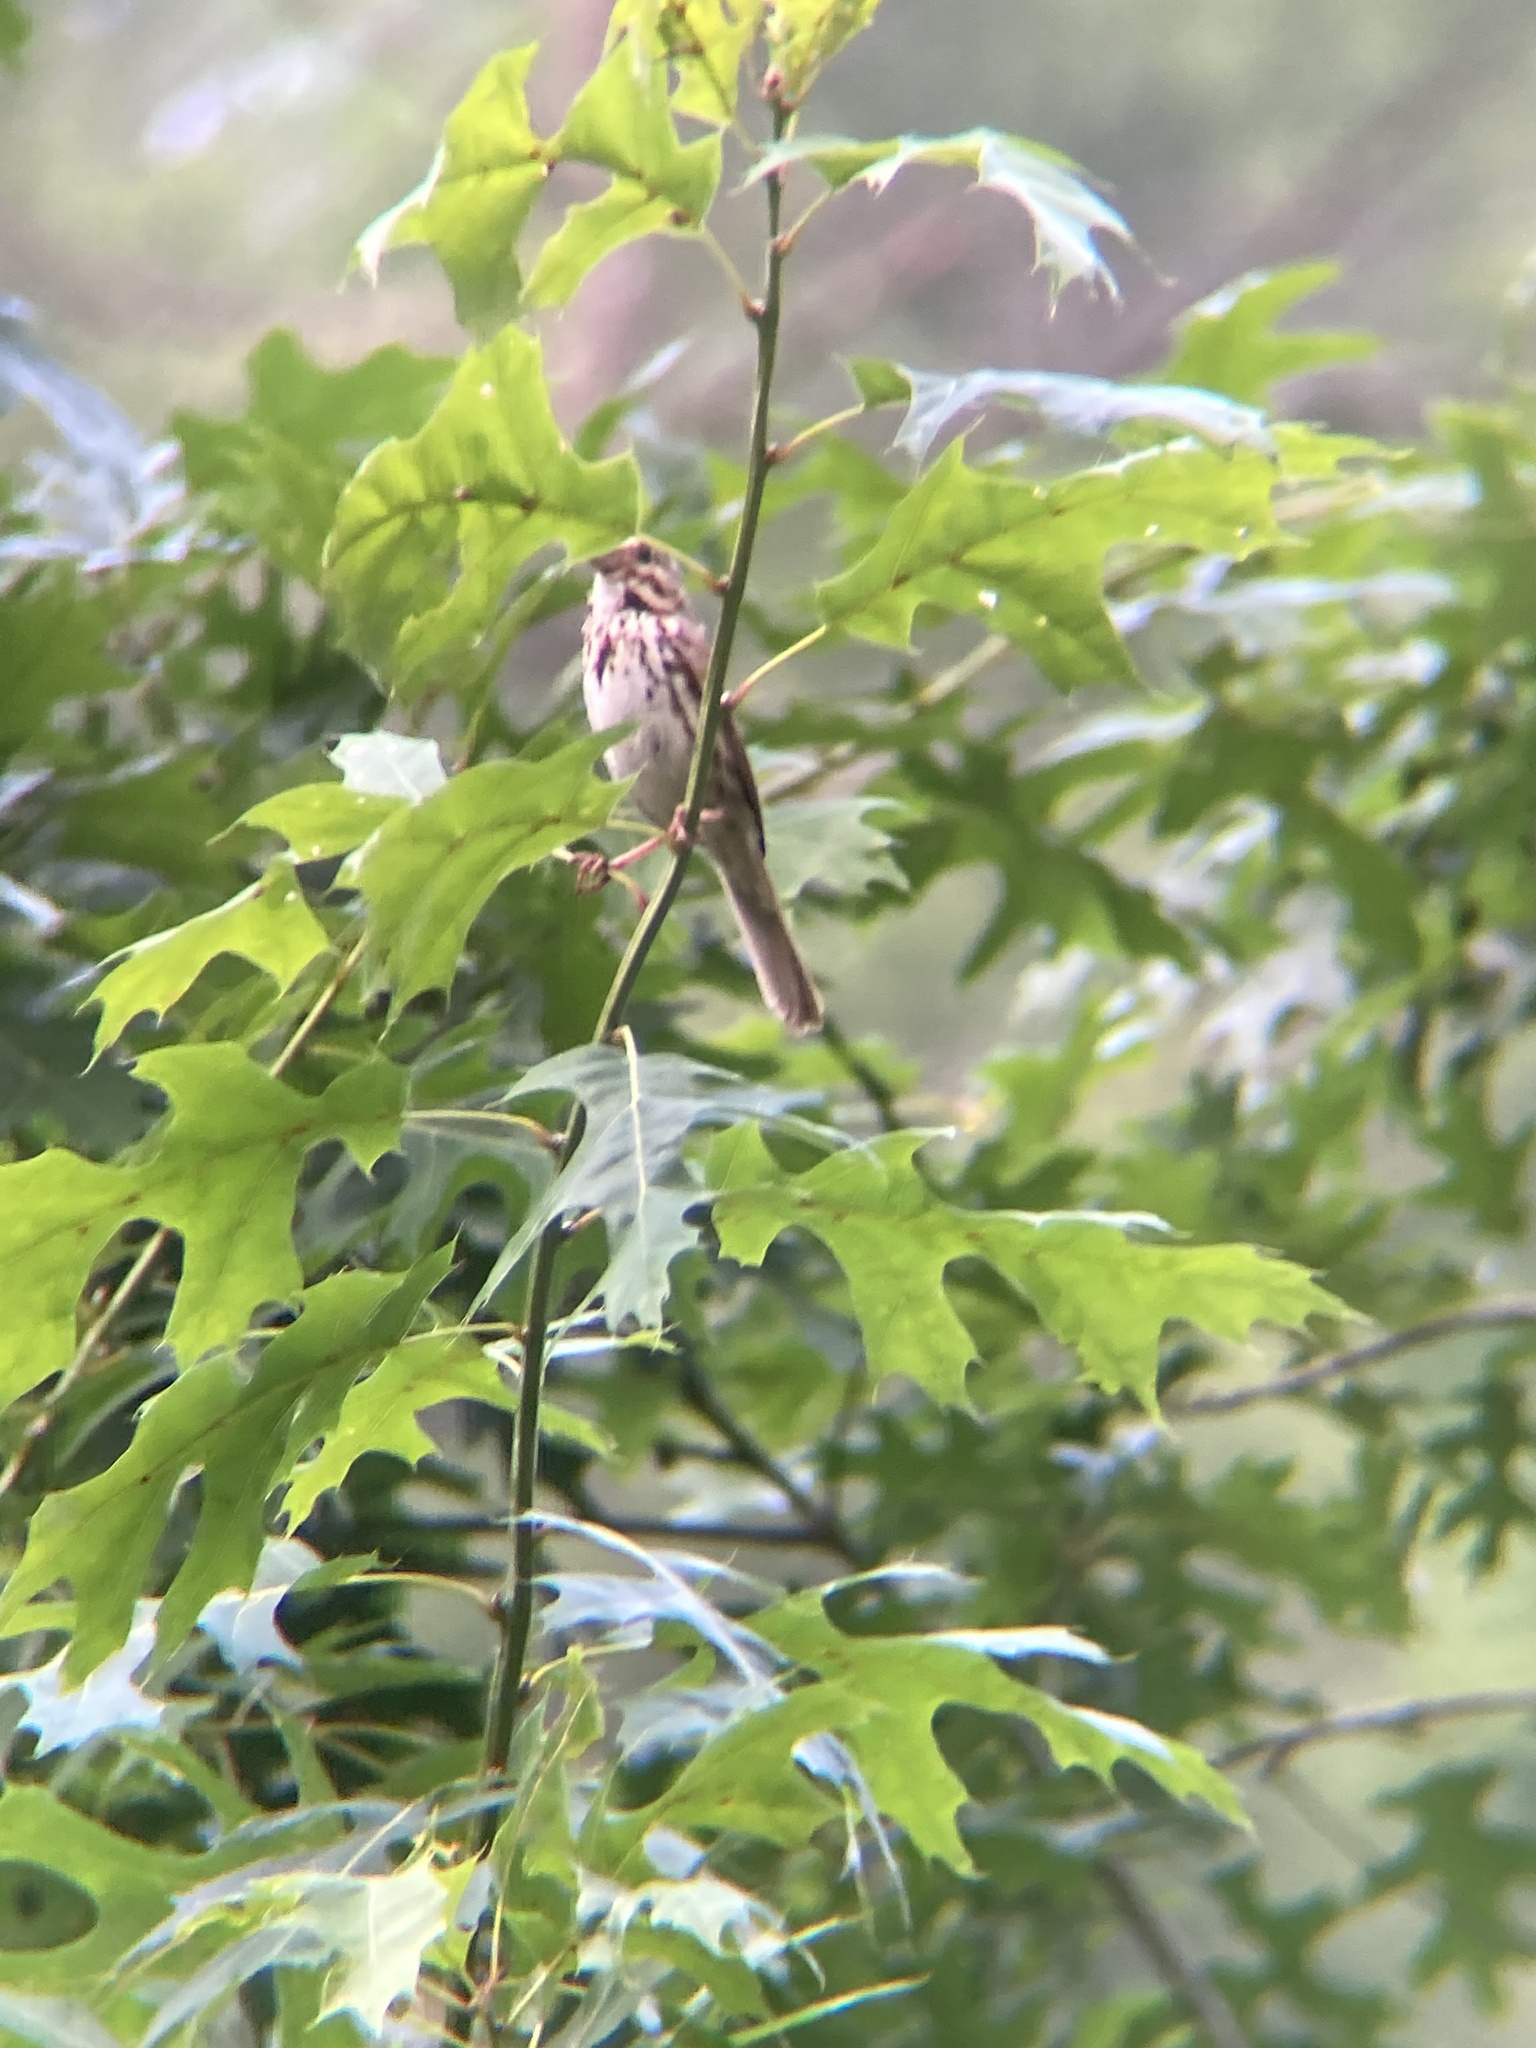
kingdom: Animalia
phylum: Chordata
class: Aves
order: Passeriformes
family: Passerellidae
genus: Melospiza
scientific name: Melospiza melodia
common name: Song sparrow
